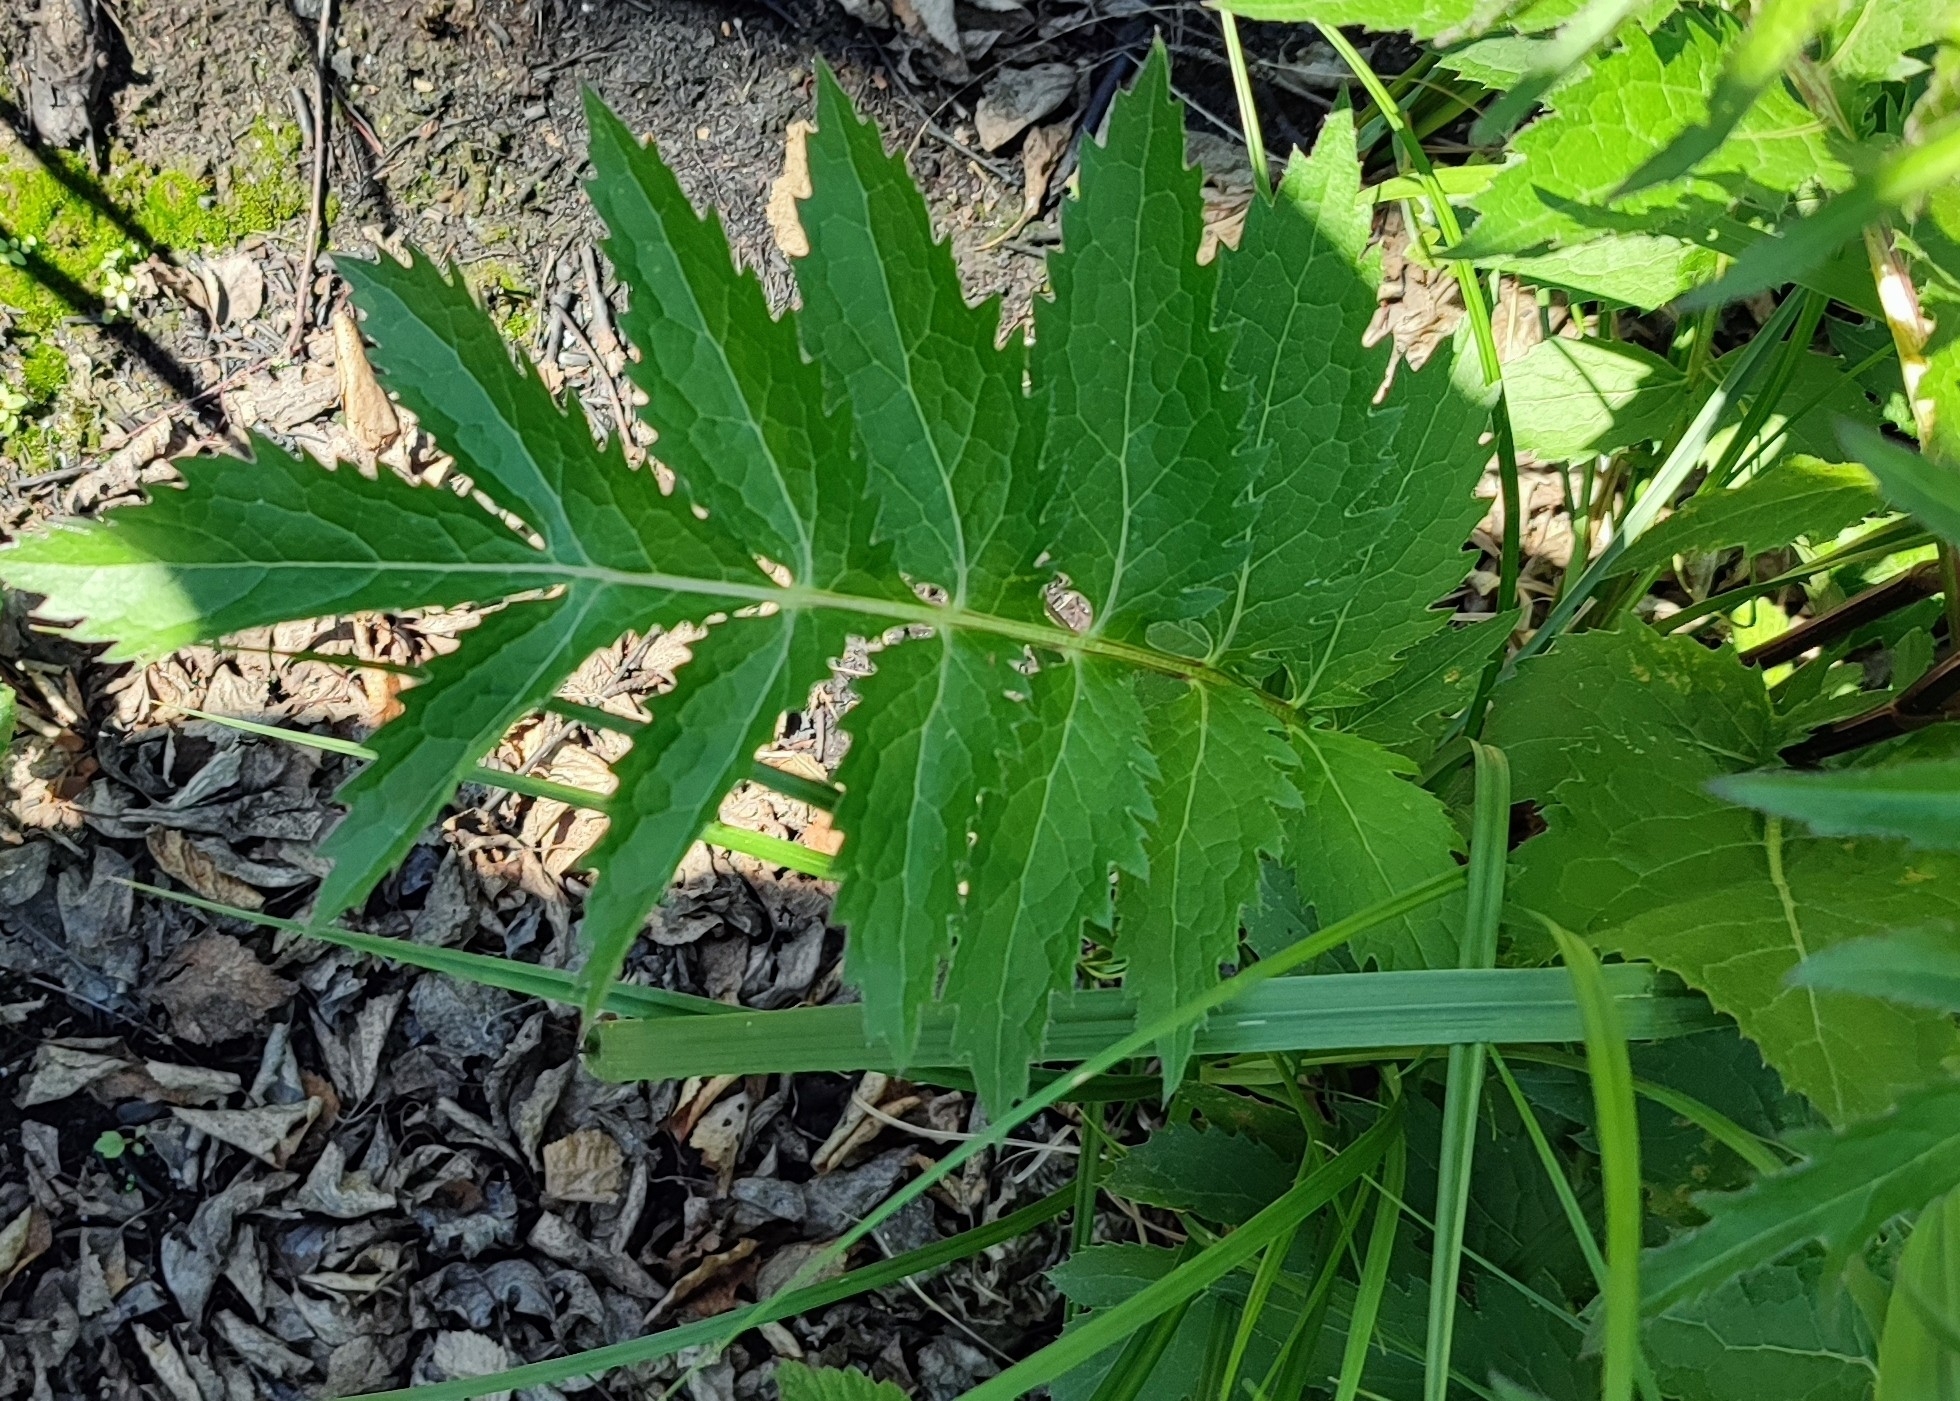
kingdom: Plantae
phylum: Tracheophyta
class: Magnoliopsida
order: Asterales
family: Asteraceae
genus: Serratula
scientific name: Serratula coronata
